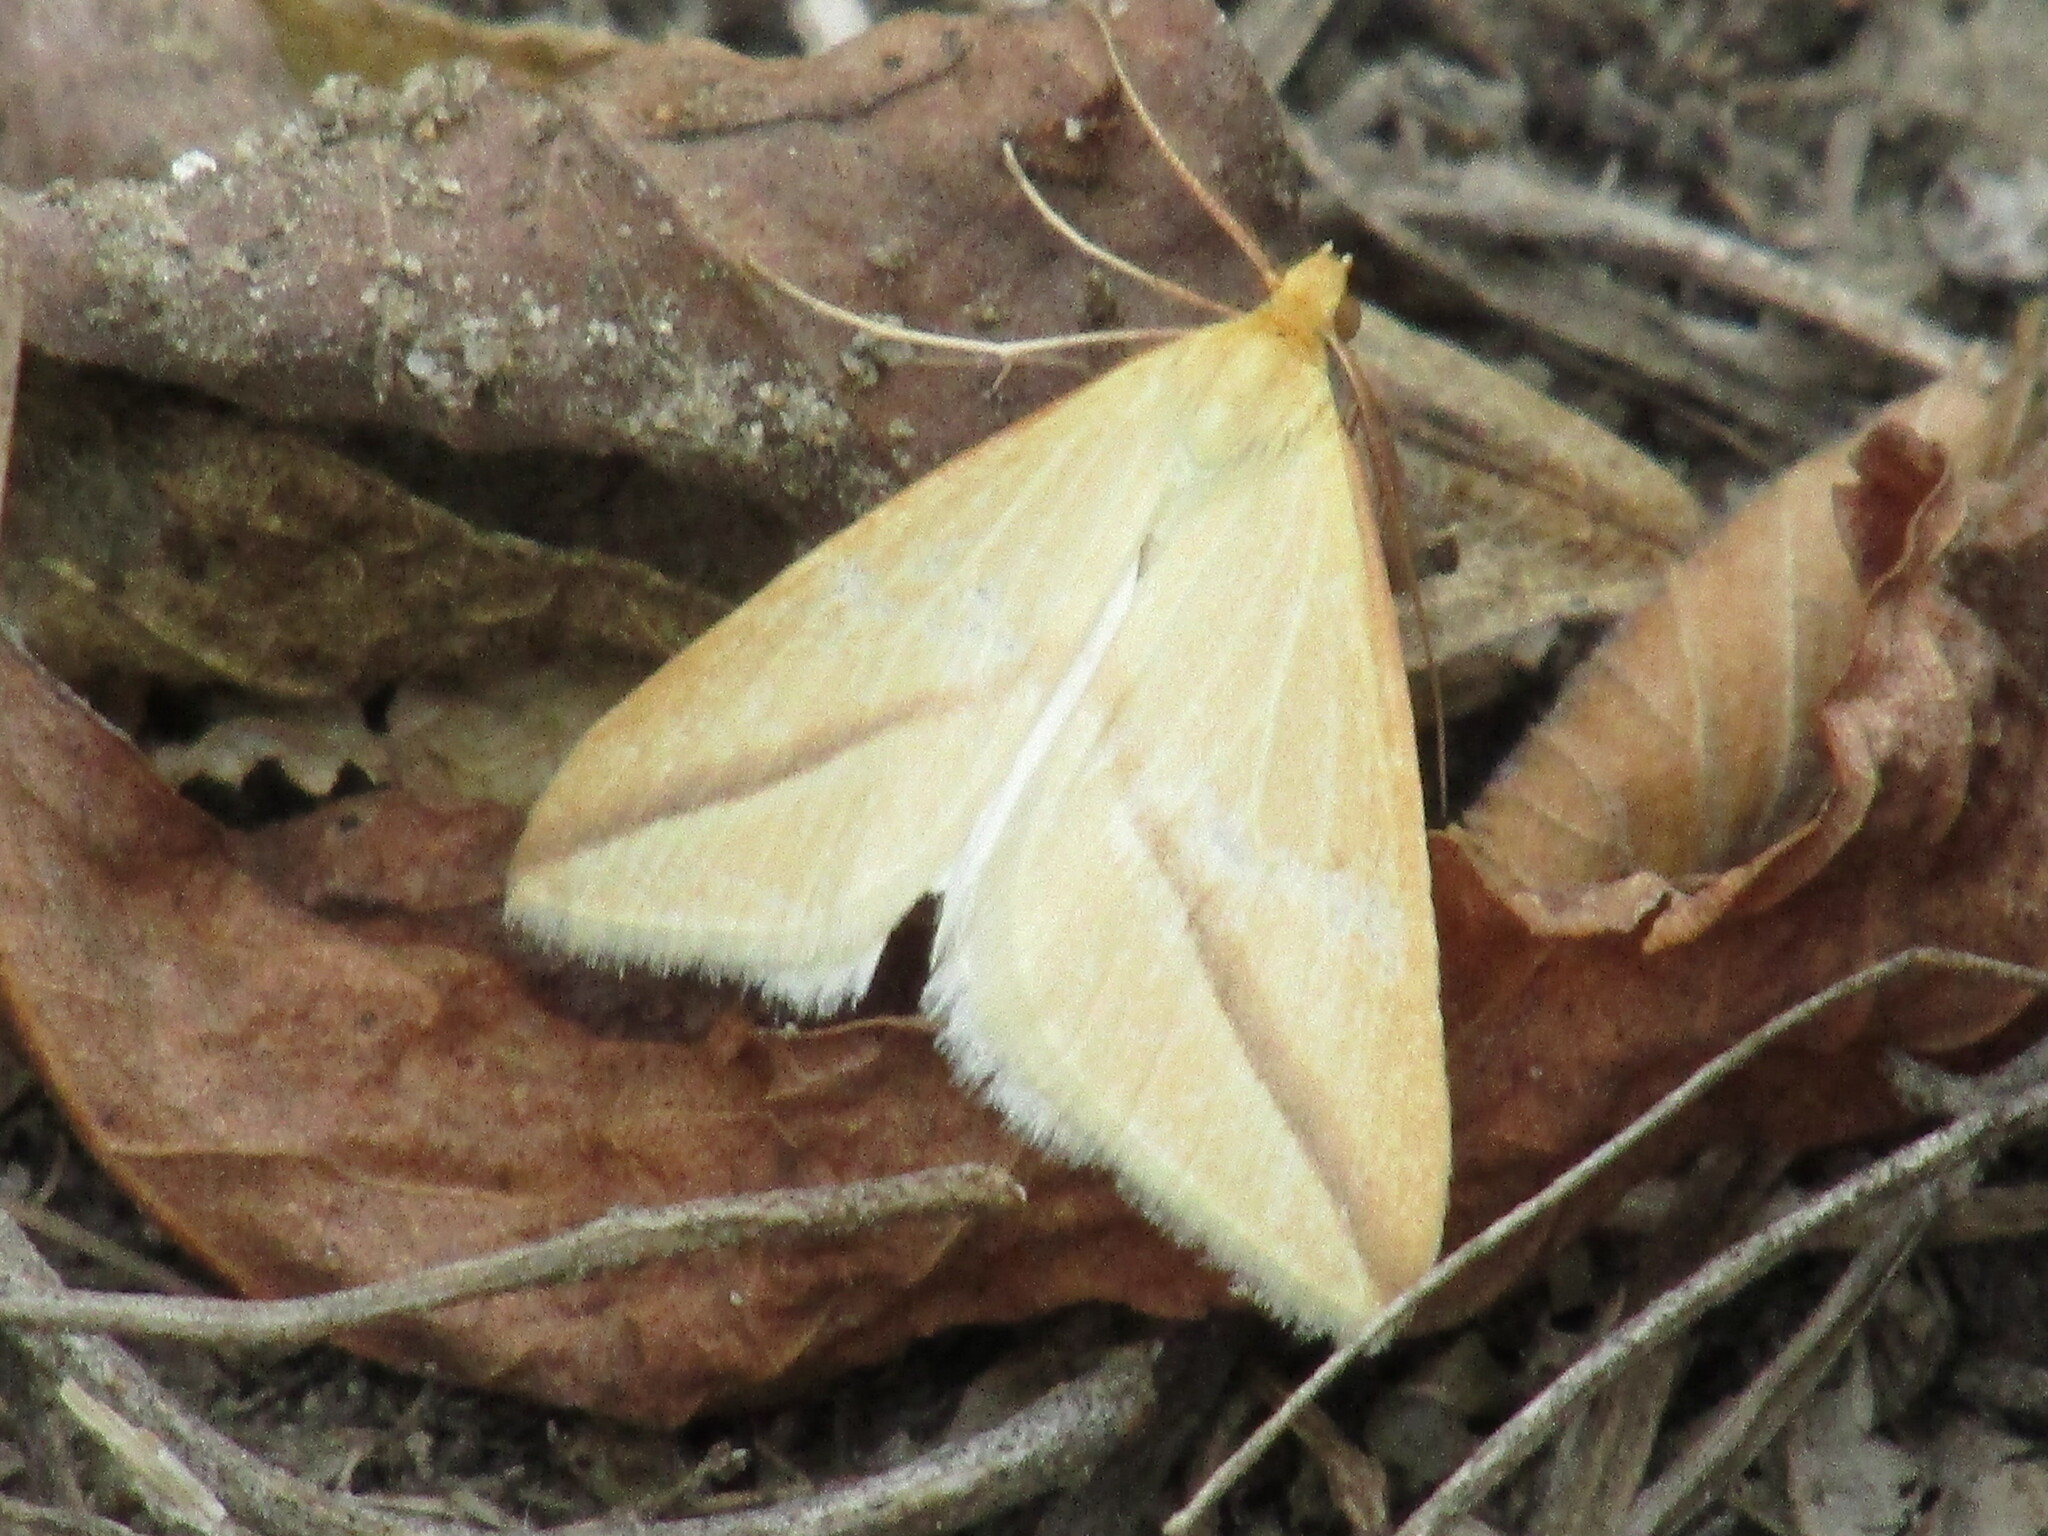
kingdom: Animalia
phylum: Arthropoda
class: Insecta
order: Lepidoptera
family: Geometridae
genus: Rhodometra
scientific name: Rhodometra sacraria
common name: Vestal
